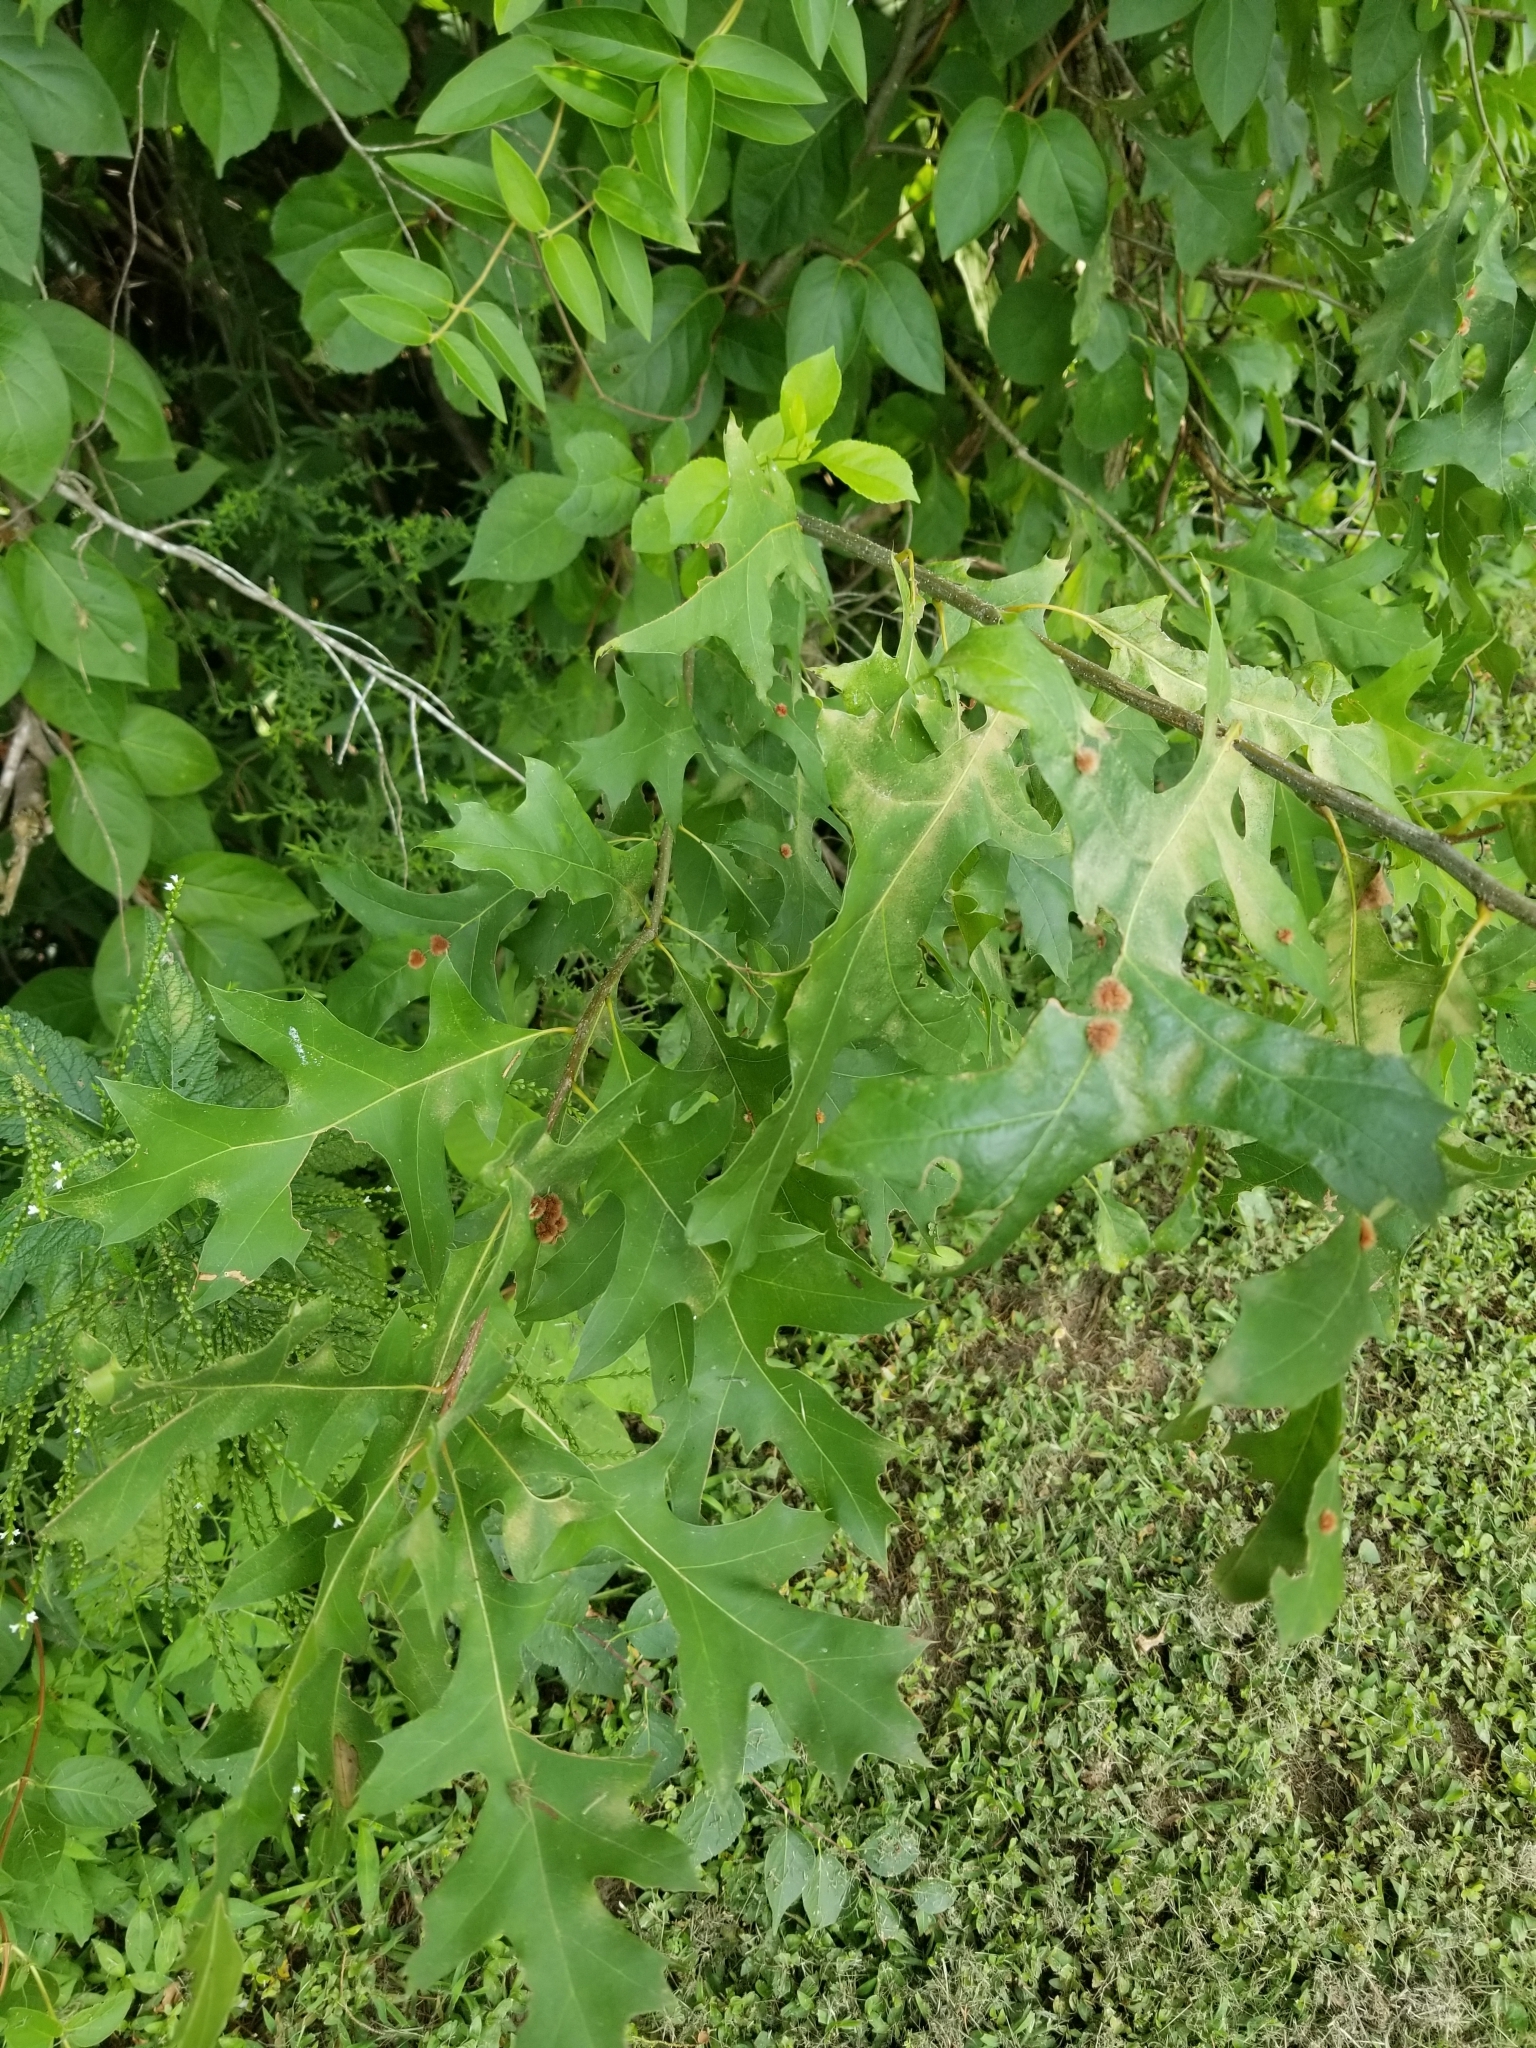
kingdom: Animalia
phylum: Arthropoda
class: Insecta
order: Hymenoptera
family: Cynipidae
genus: Callirhytis
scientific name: Callirhytis
